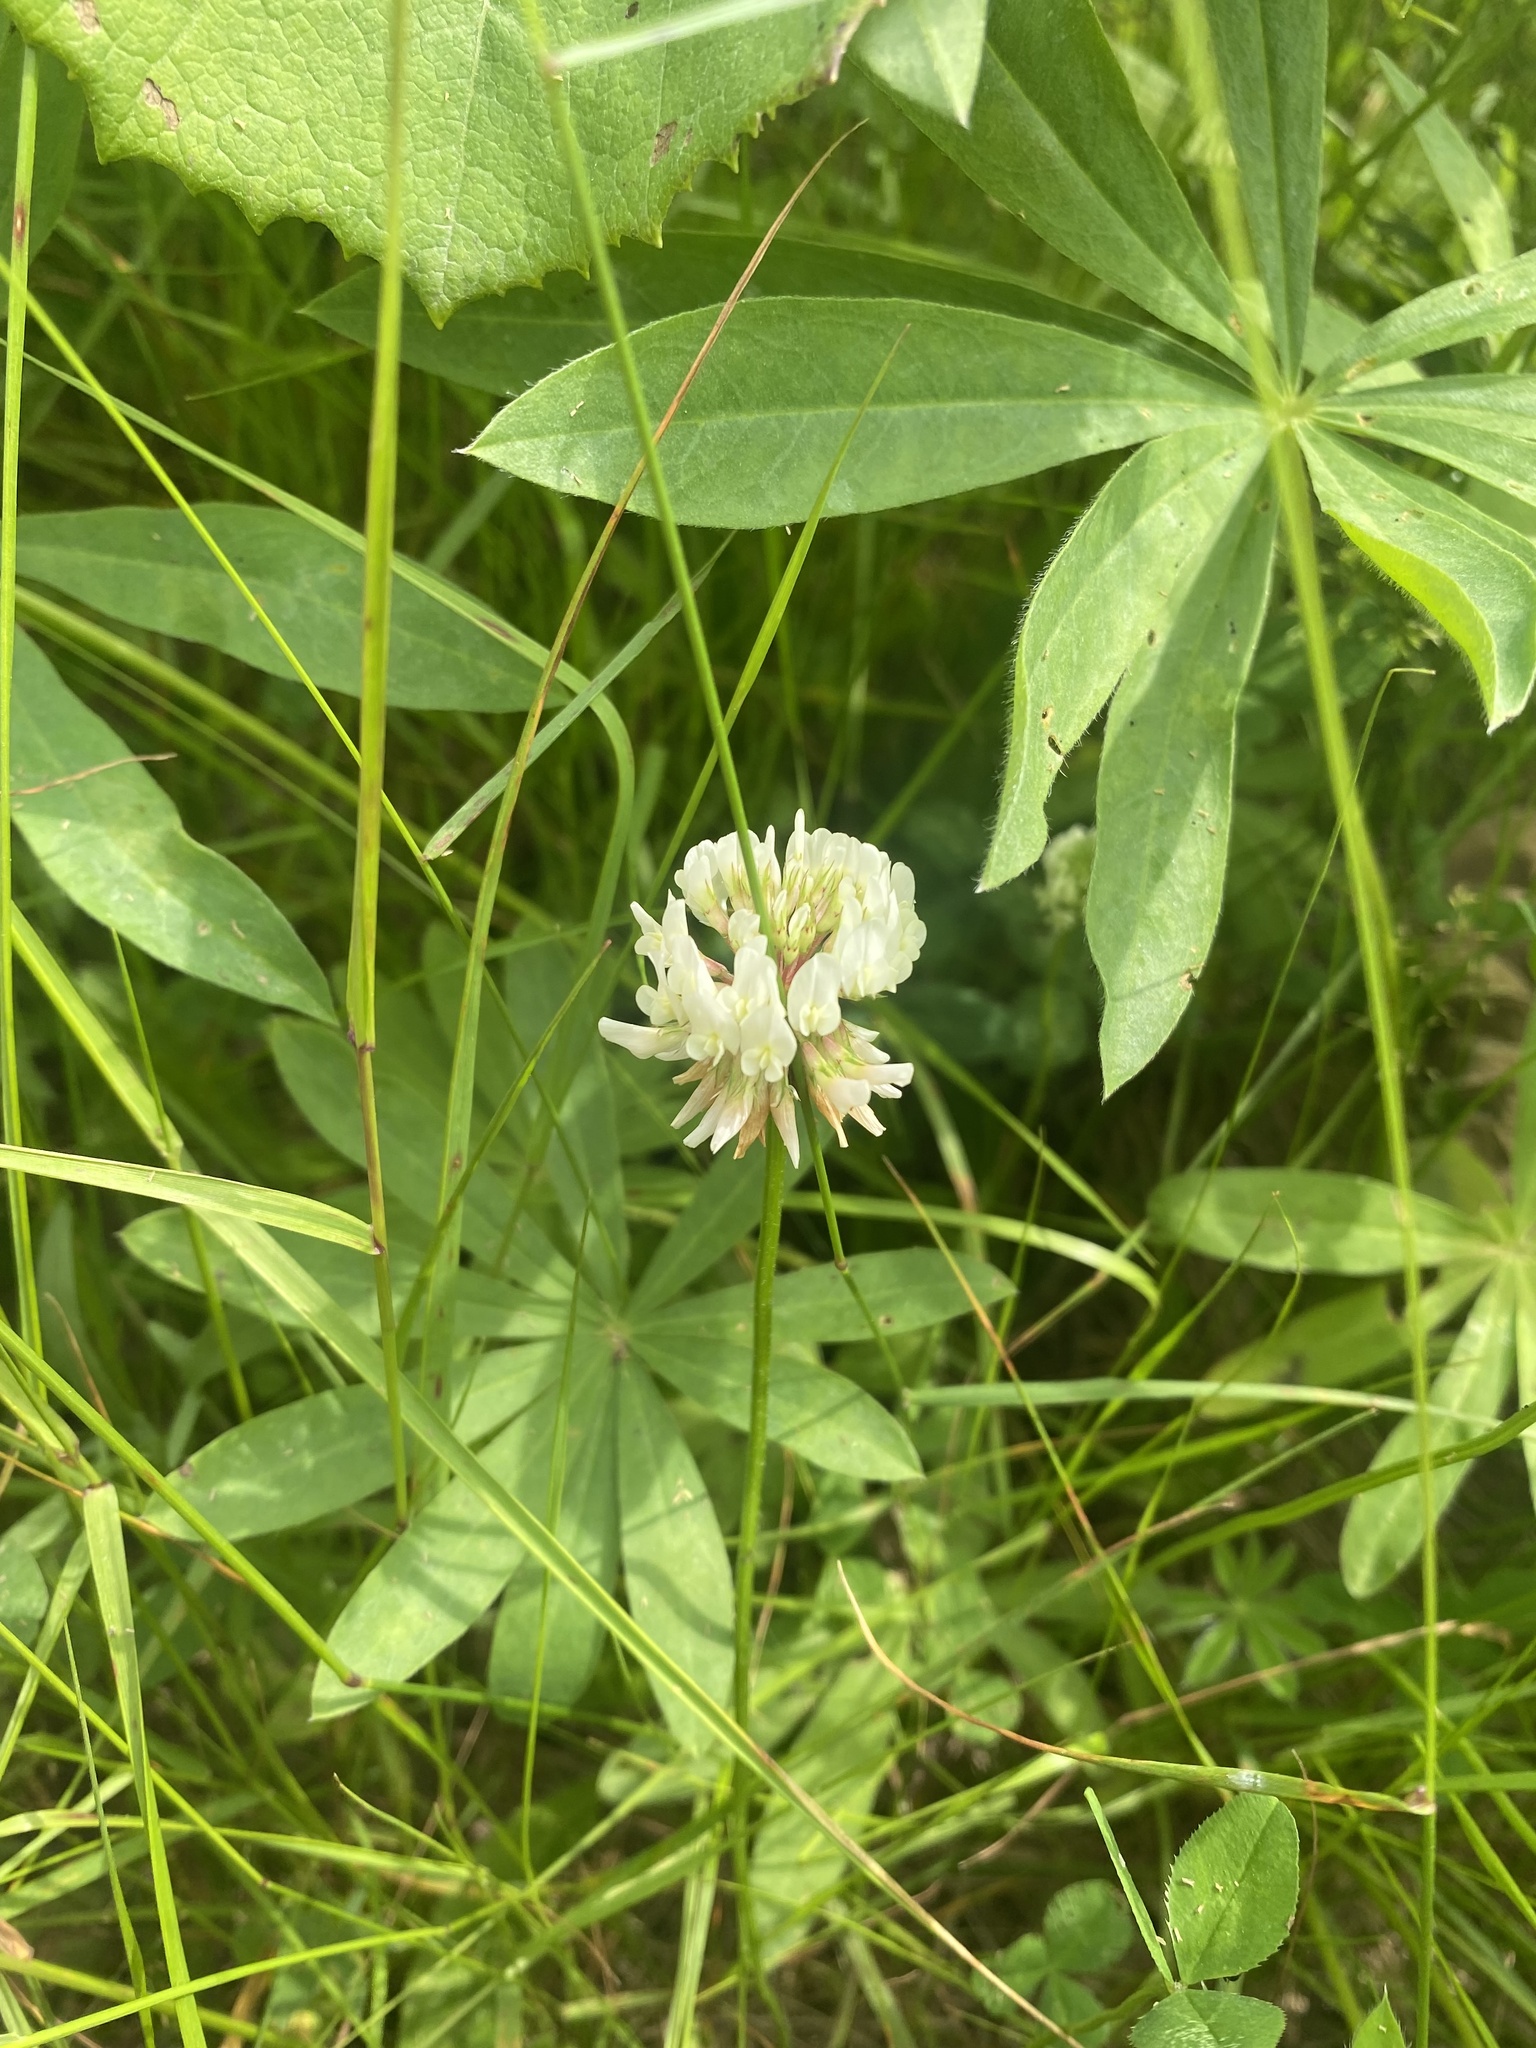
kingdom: Plantae
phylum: Tracheophyta
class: Magnoliopsida
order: Fabales
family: Fabaceae
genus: Trifolium
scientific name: Trifolium repens
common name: White clover
